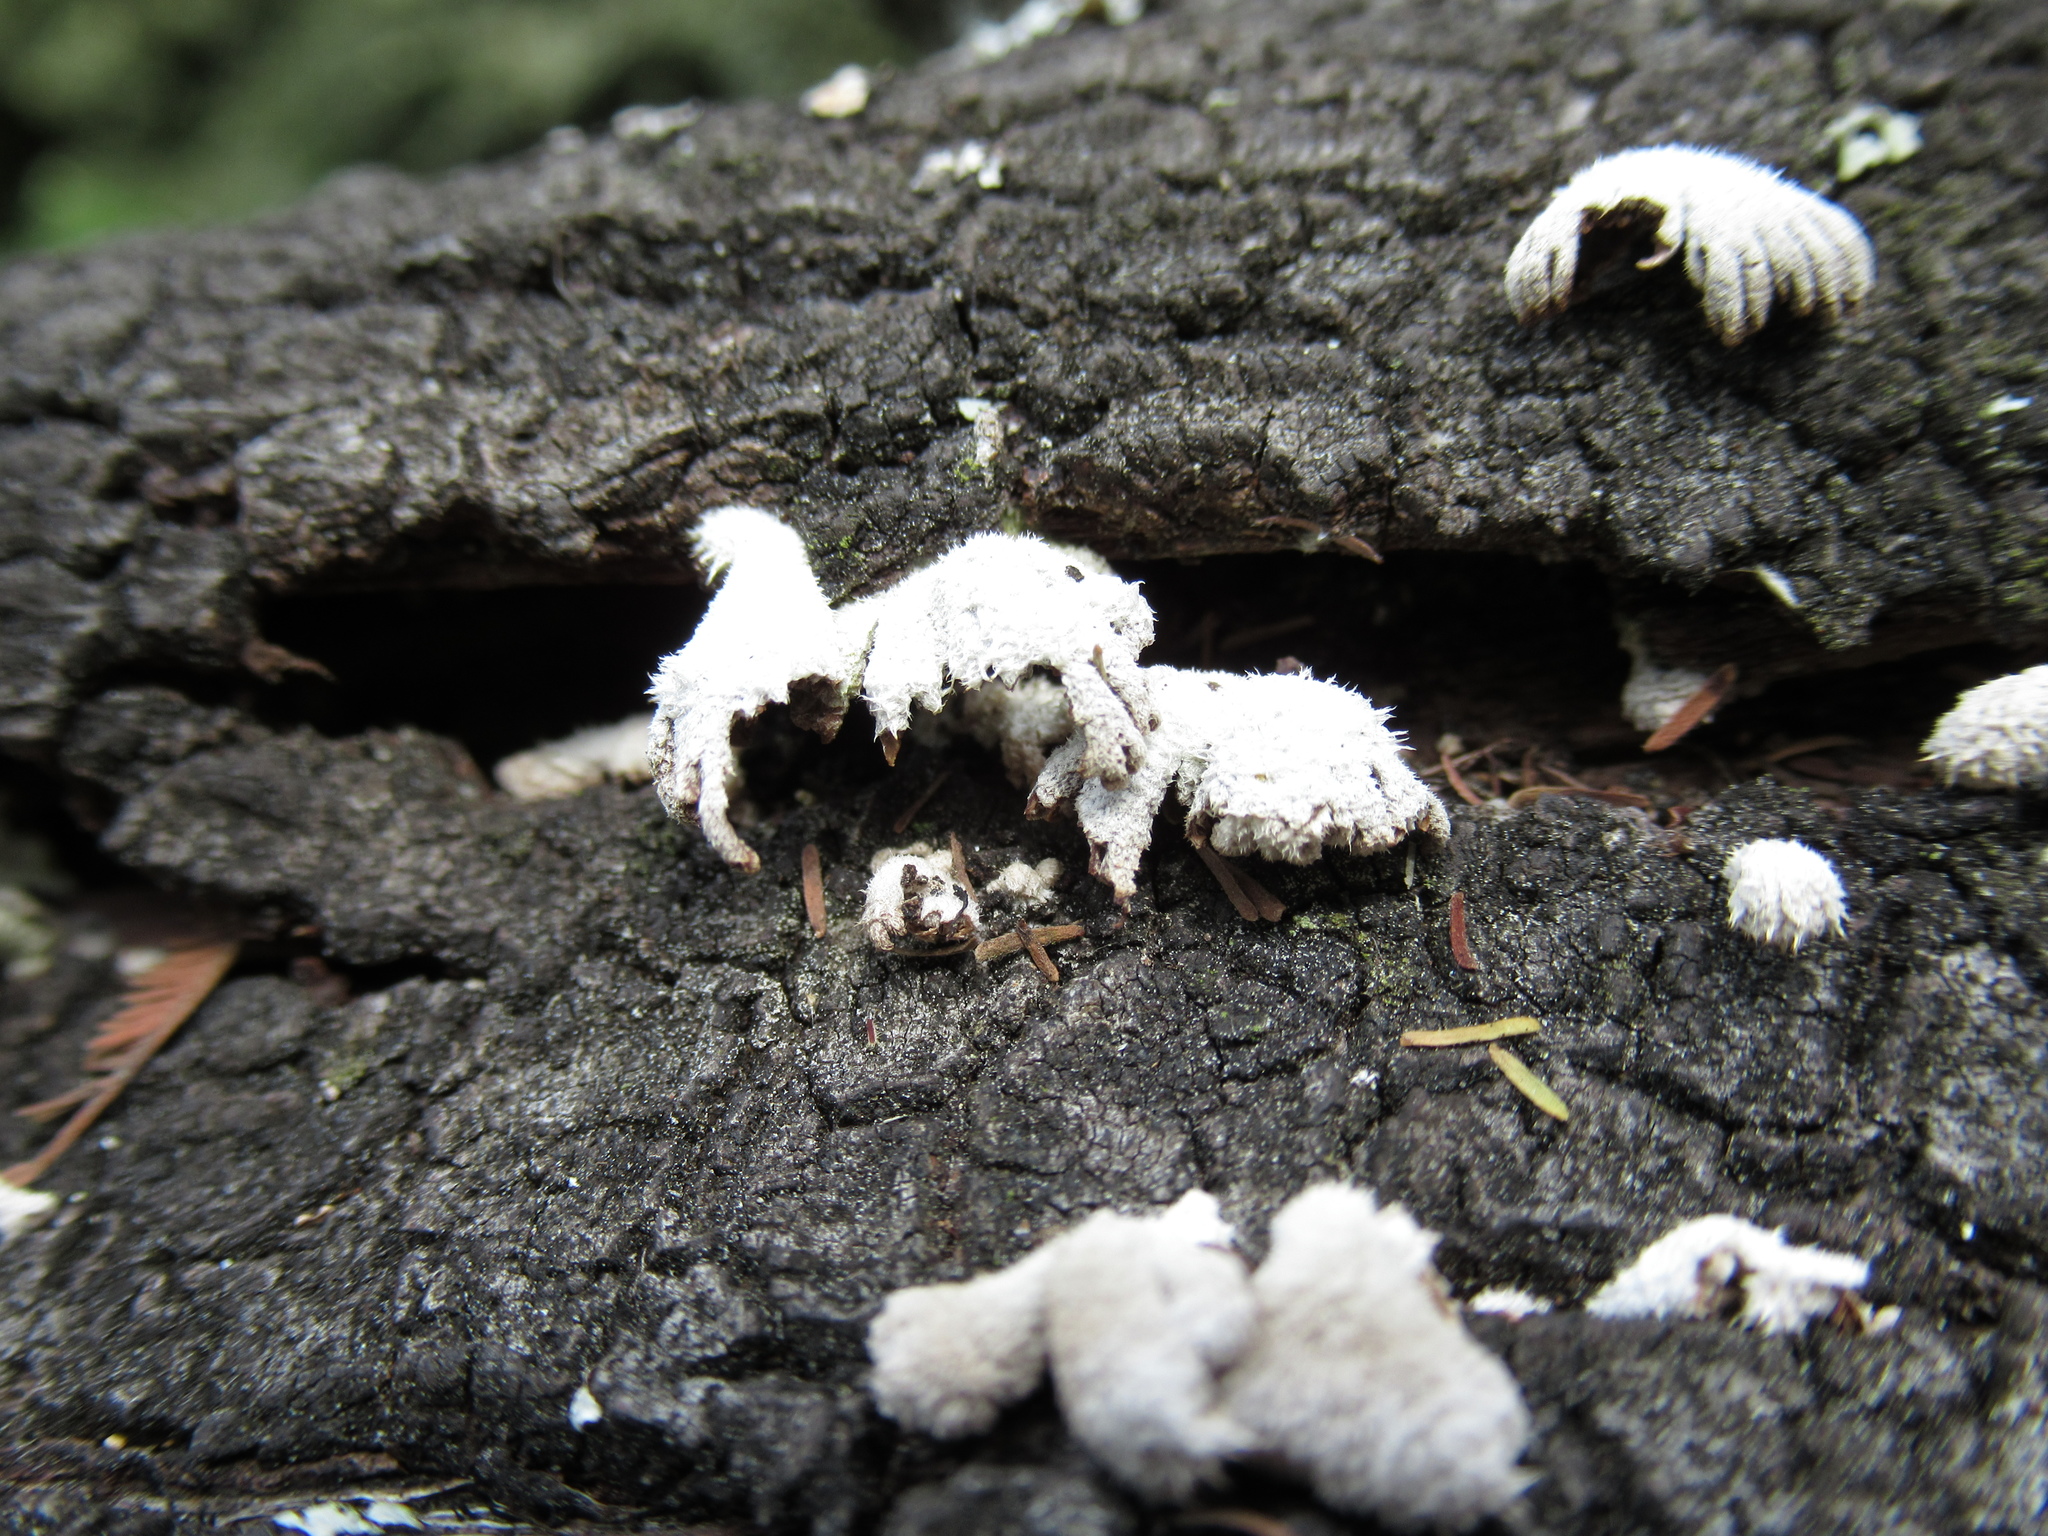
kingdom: Fungi
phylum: Basidiomycota
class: Agaricomycetes
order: Agaricales
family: Schizophyllaceae
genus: Schizophyllum
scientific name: Schizophyllum commune
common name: Common porecrust
